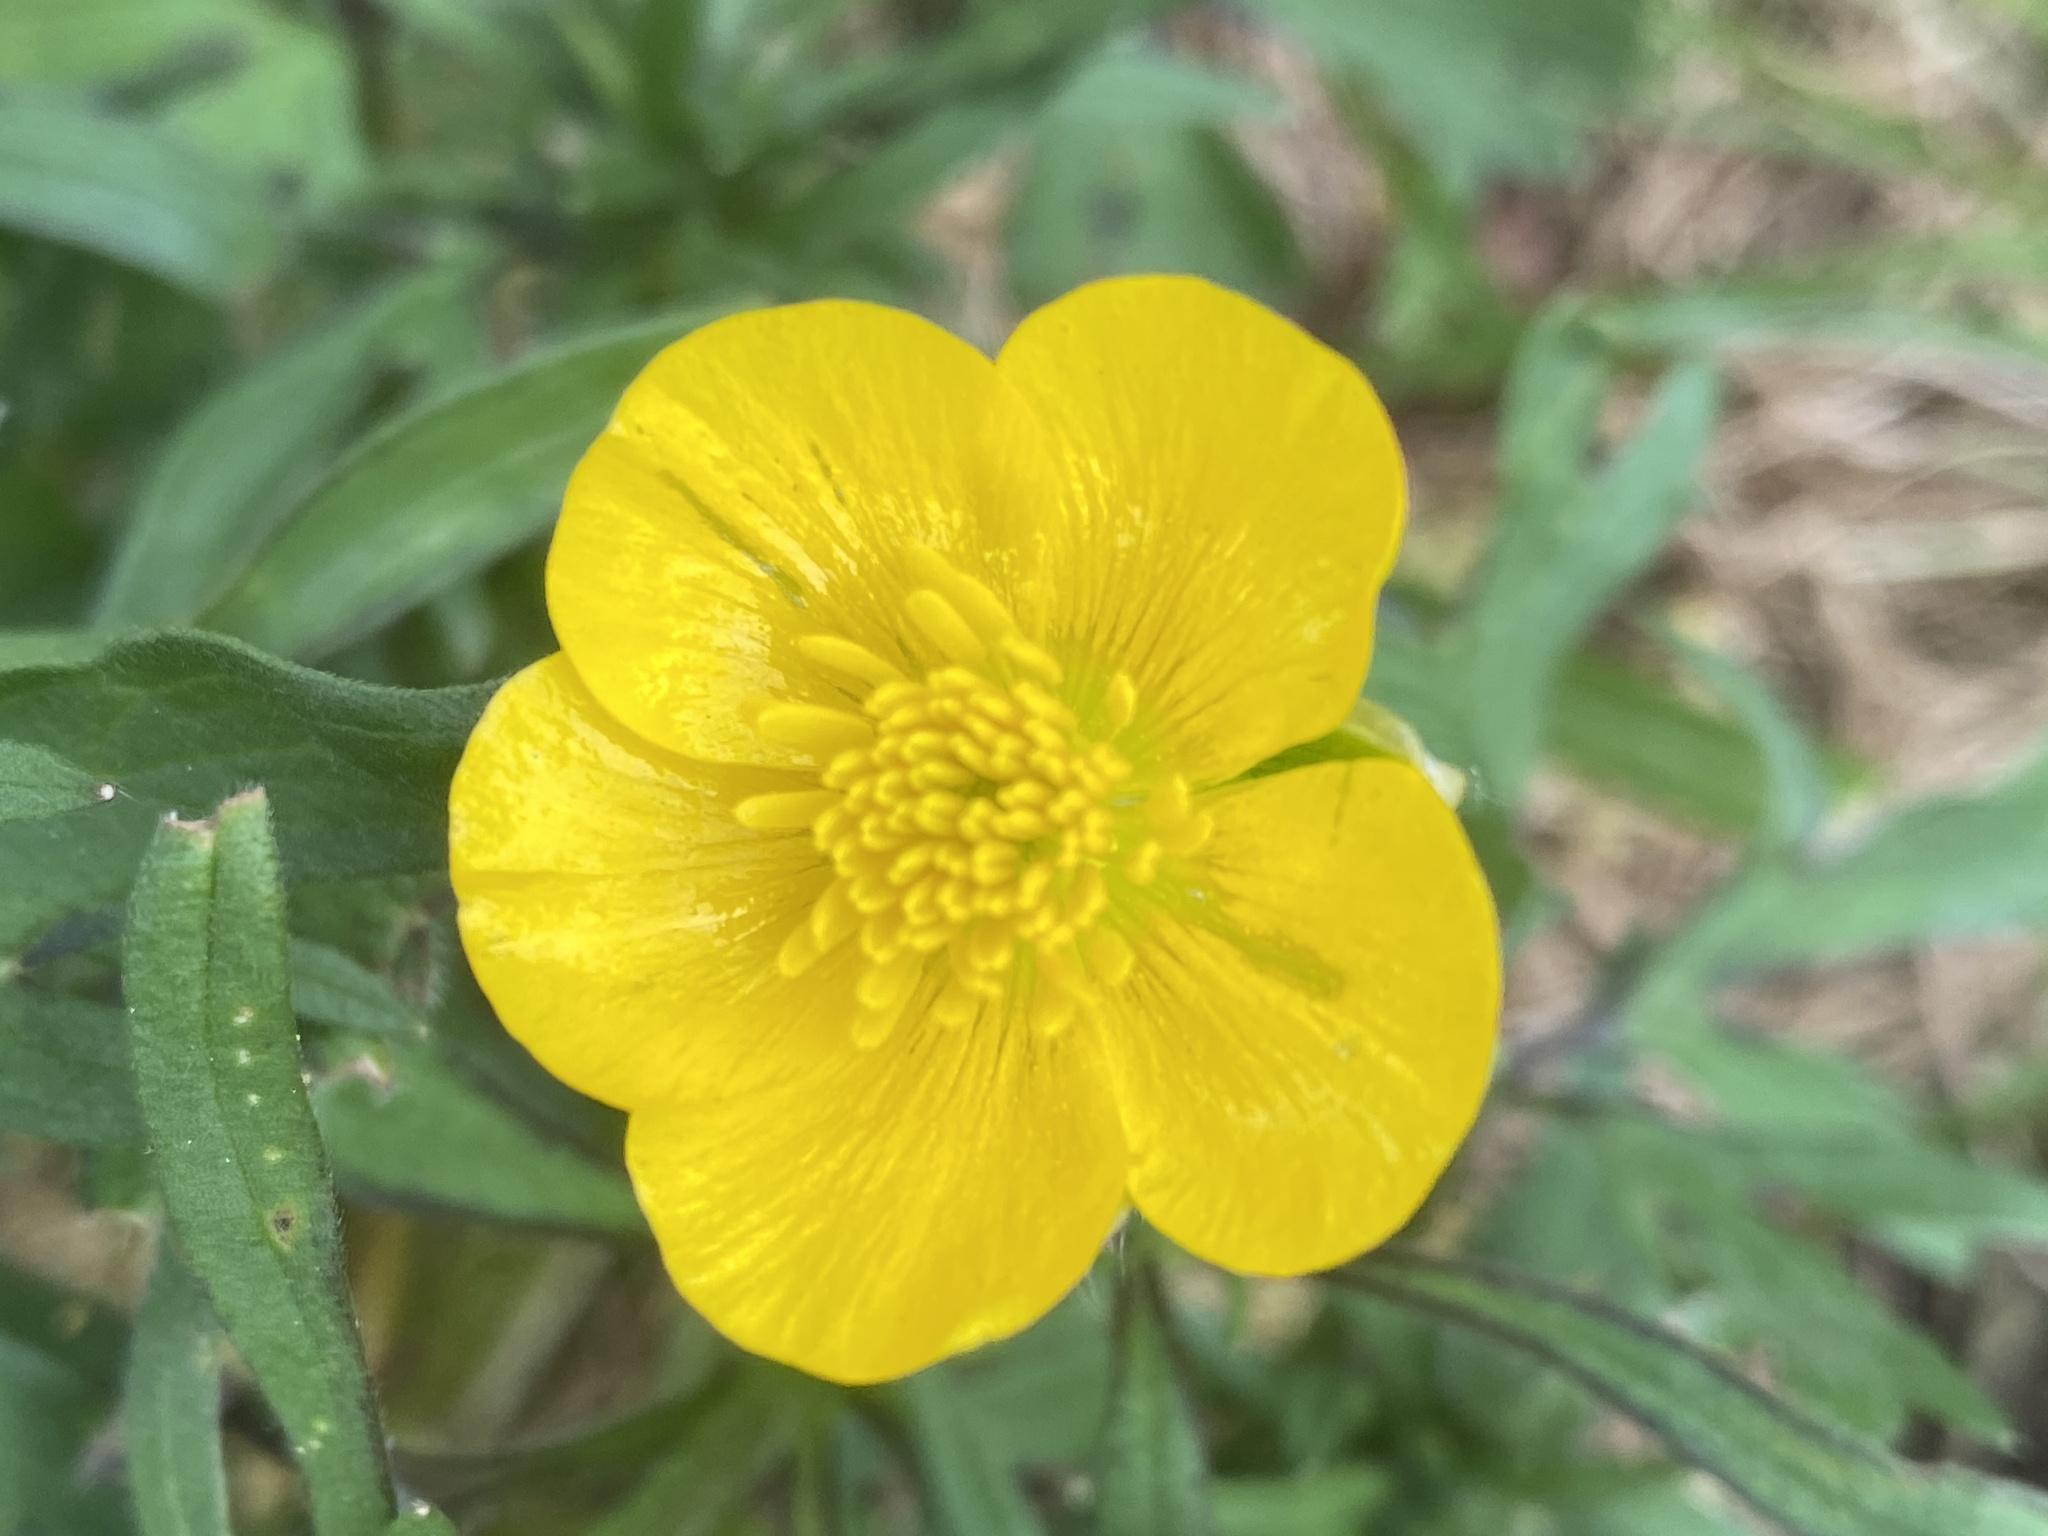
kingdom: Plantae
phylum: Tracheophyta
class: Magnoliopsida
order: Ranunculales
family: Ranunculaceae
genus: Ranunculus
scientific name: Ranunculus bulbosus
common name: Bulbous buttercup
